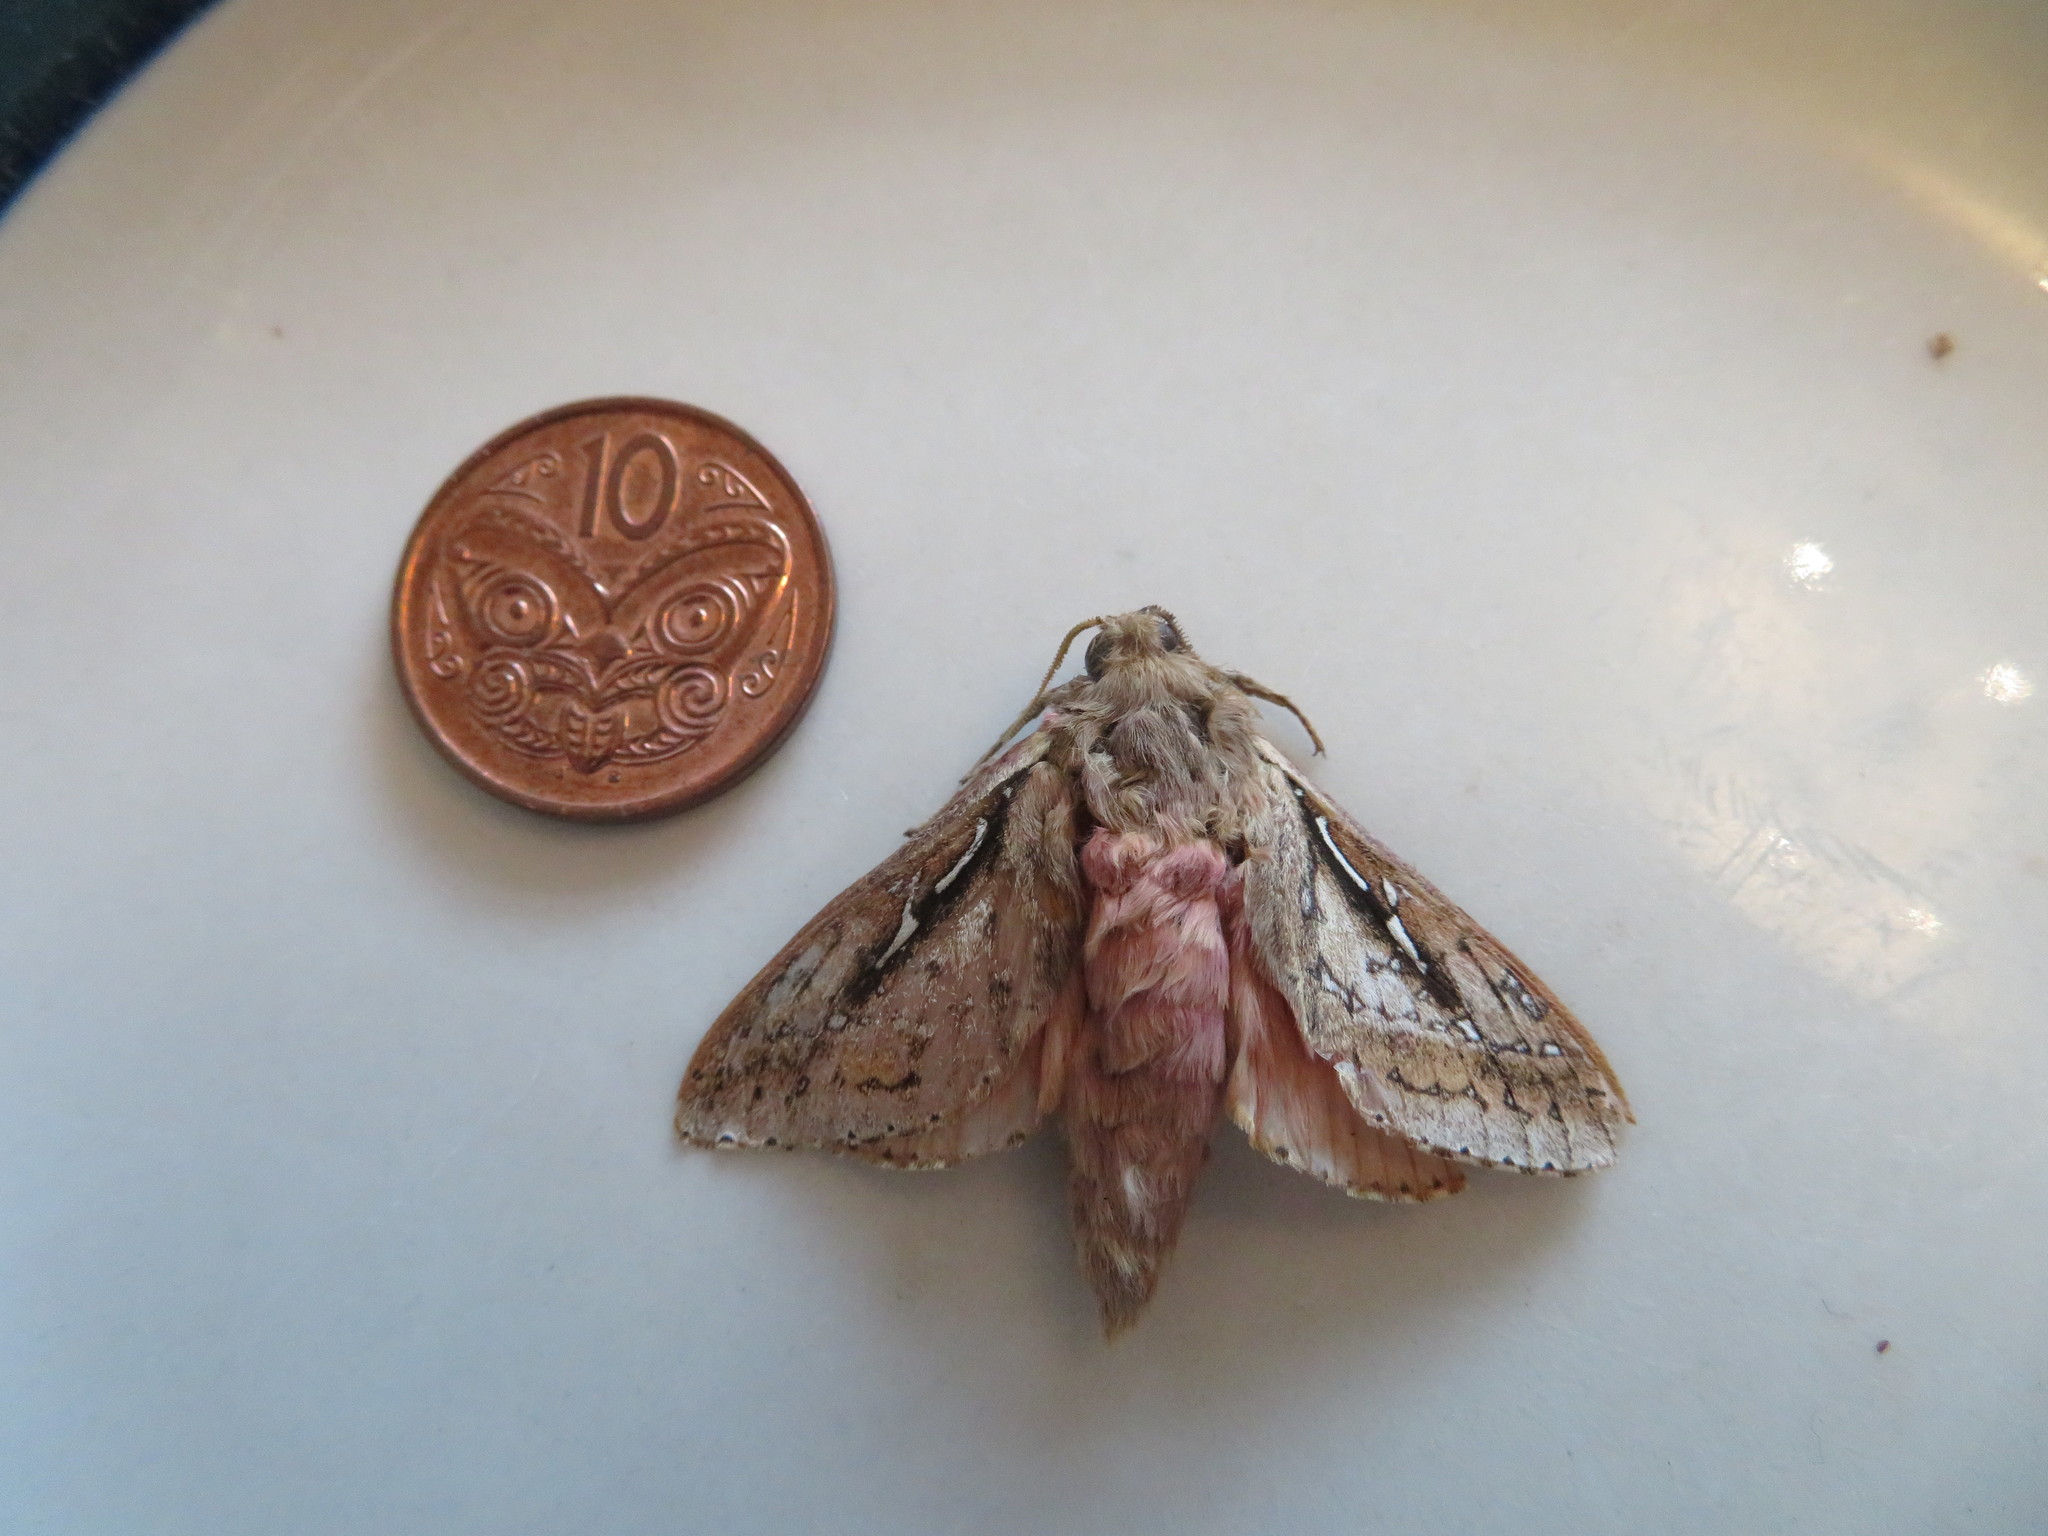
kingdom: Animalia
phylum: Arthropoda
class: Insecta
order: Lepidoptera
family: Hepialidae
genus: Wiseana
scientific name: Wiseana signata
